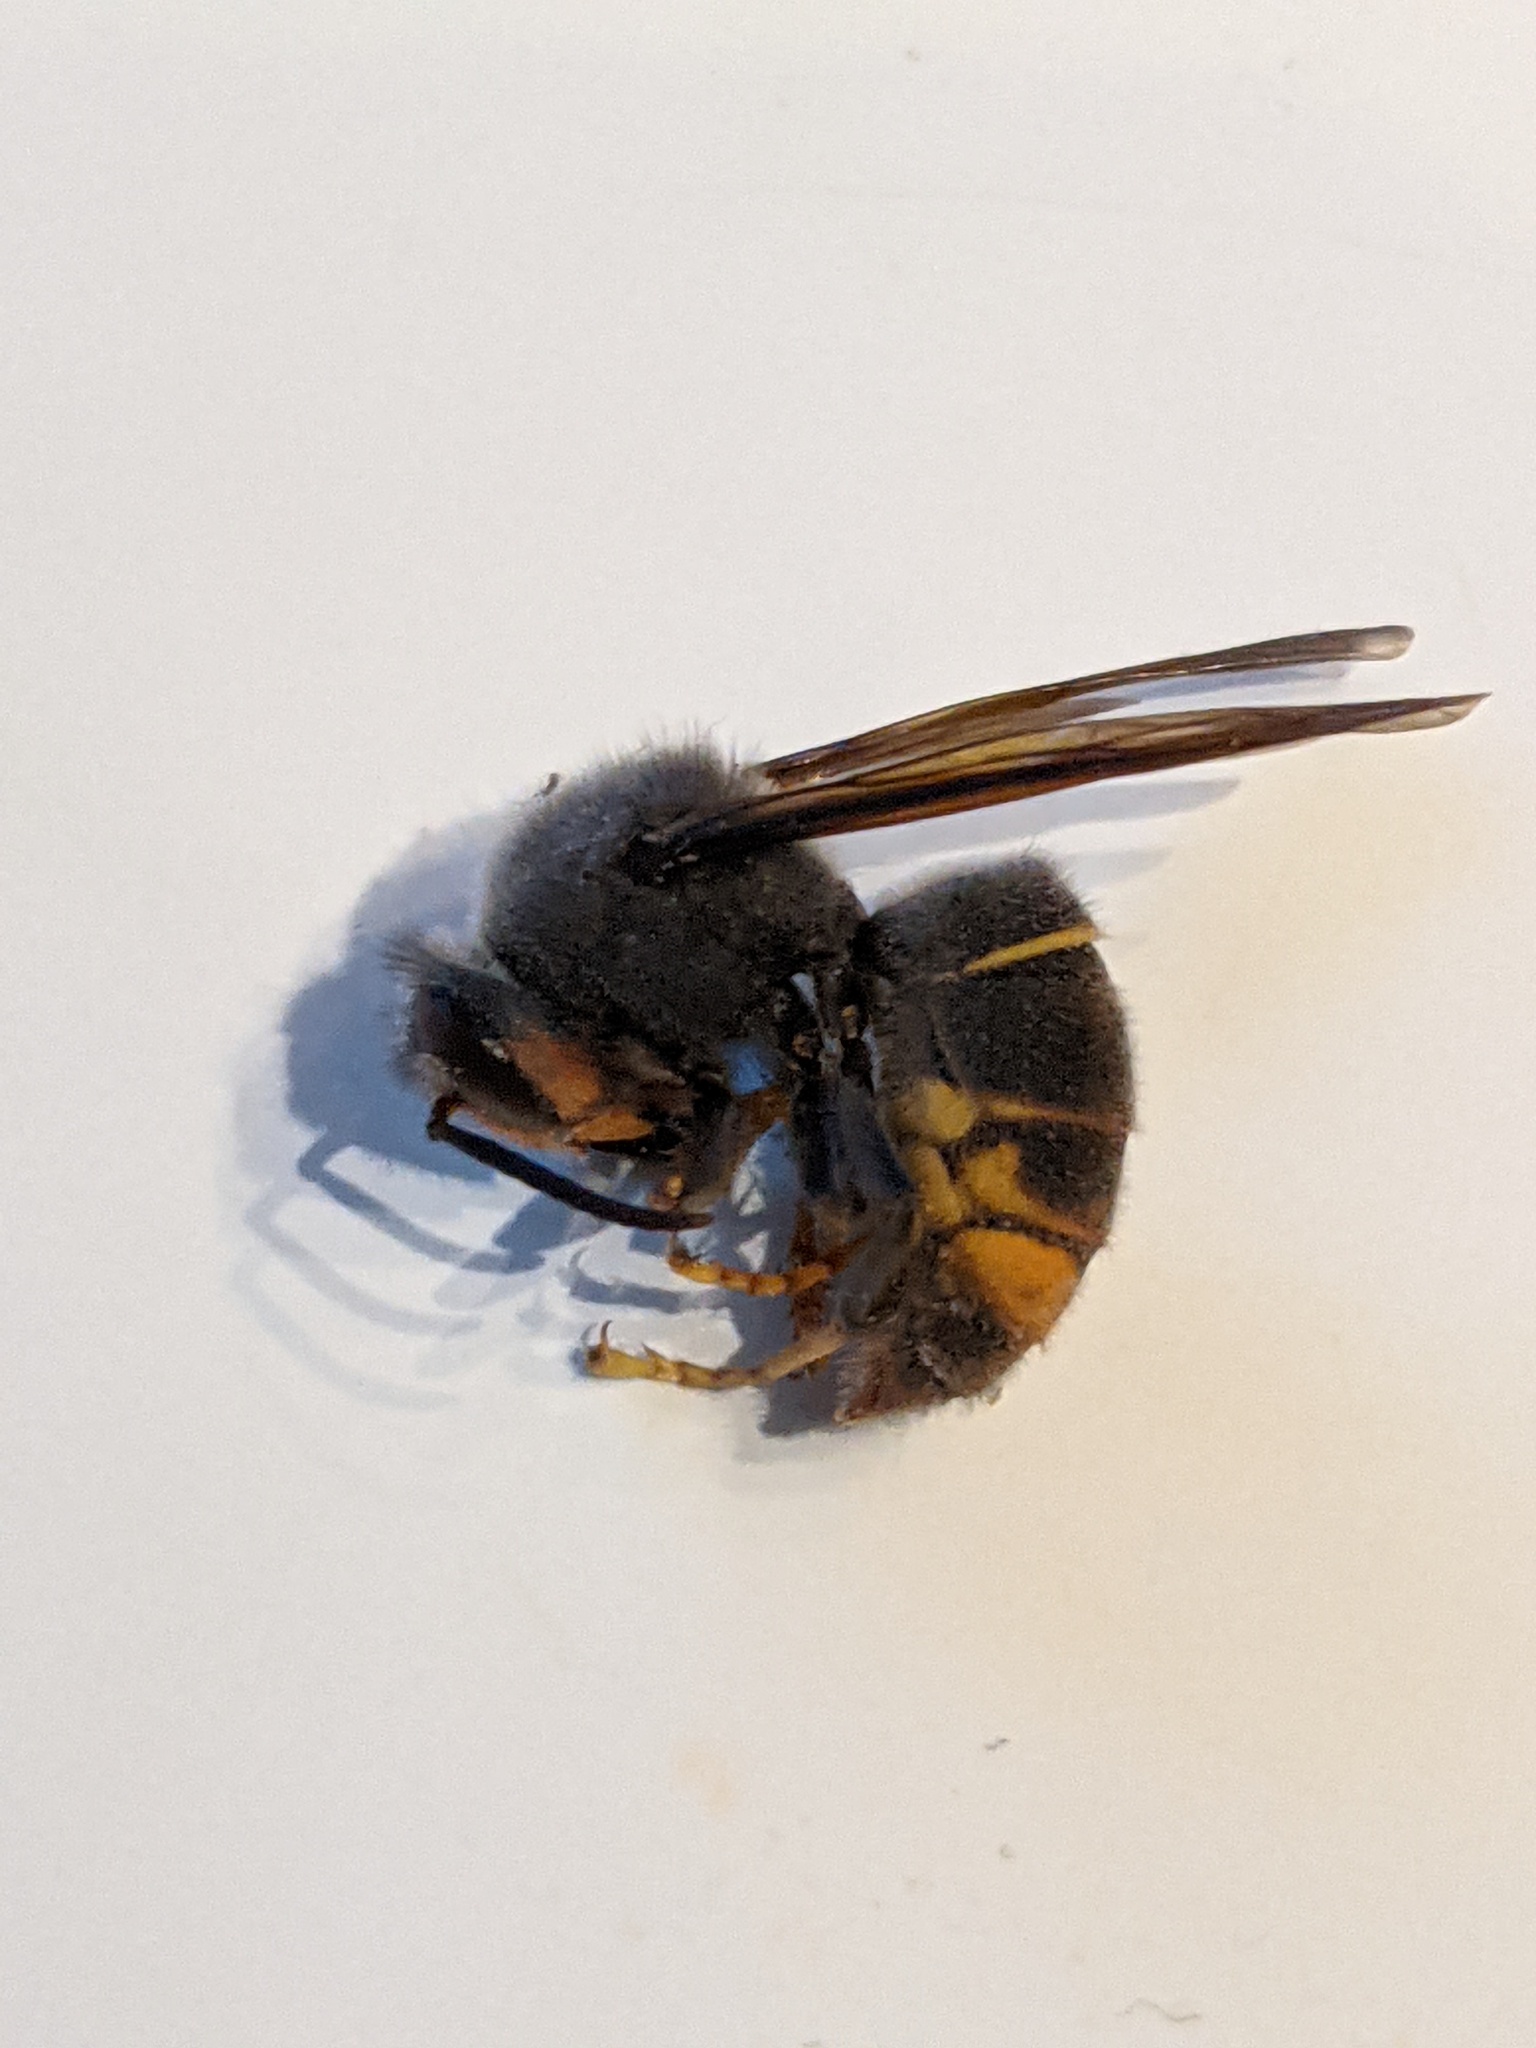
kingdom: Animalia
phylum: Arthropoda
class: Insecta
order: Hymenoptera
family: Vespidae
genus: Vespa
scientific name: Vespa velutina
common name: Asian hornet
